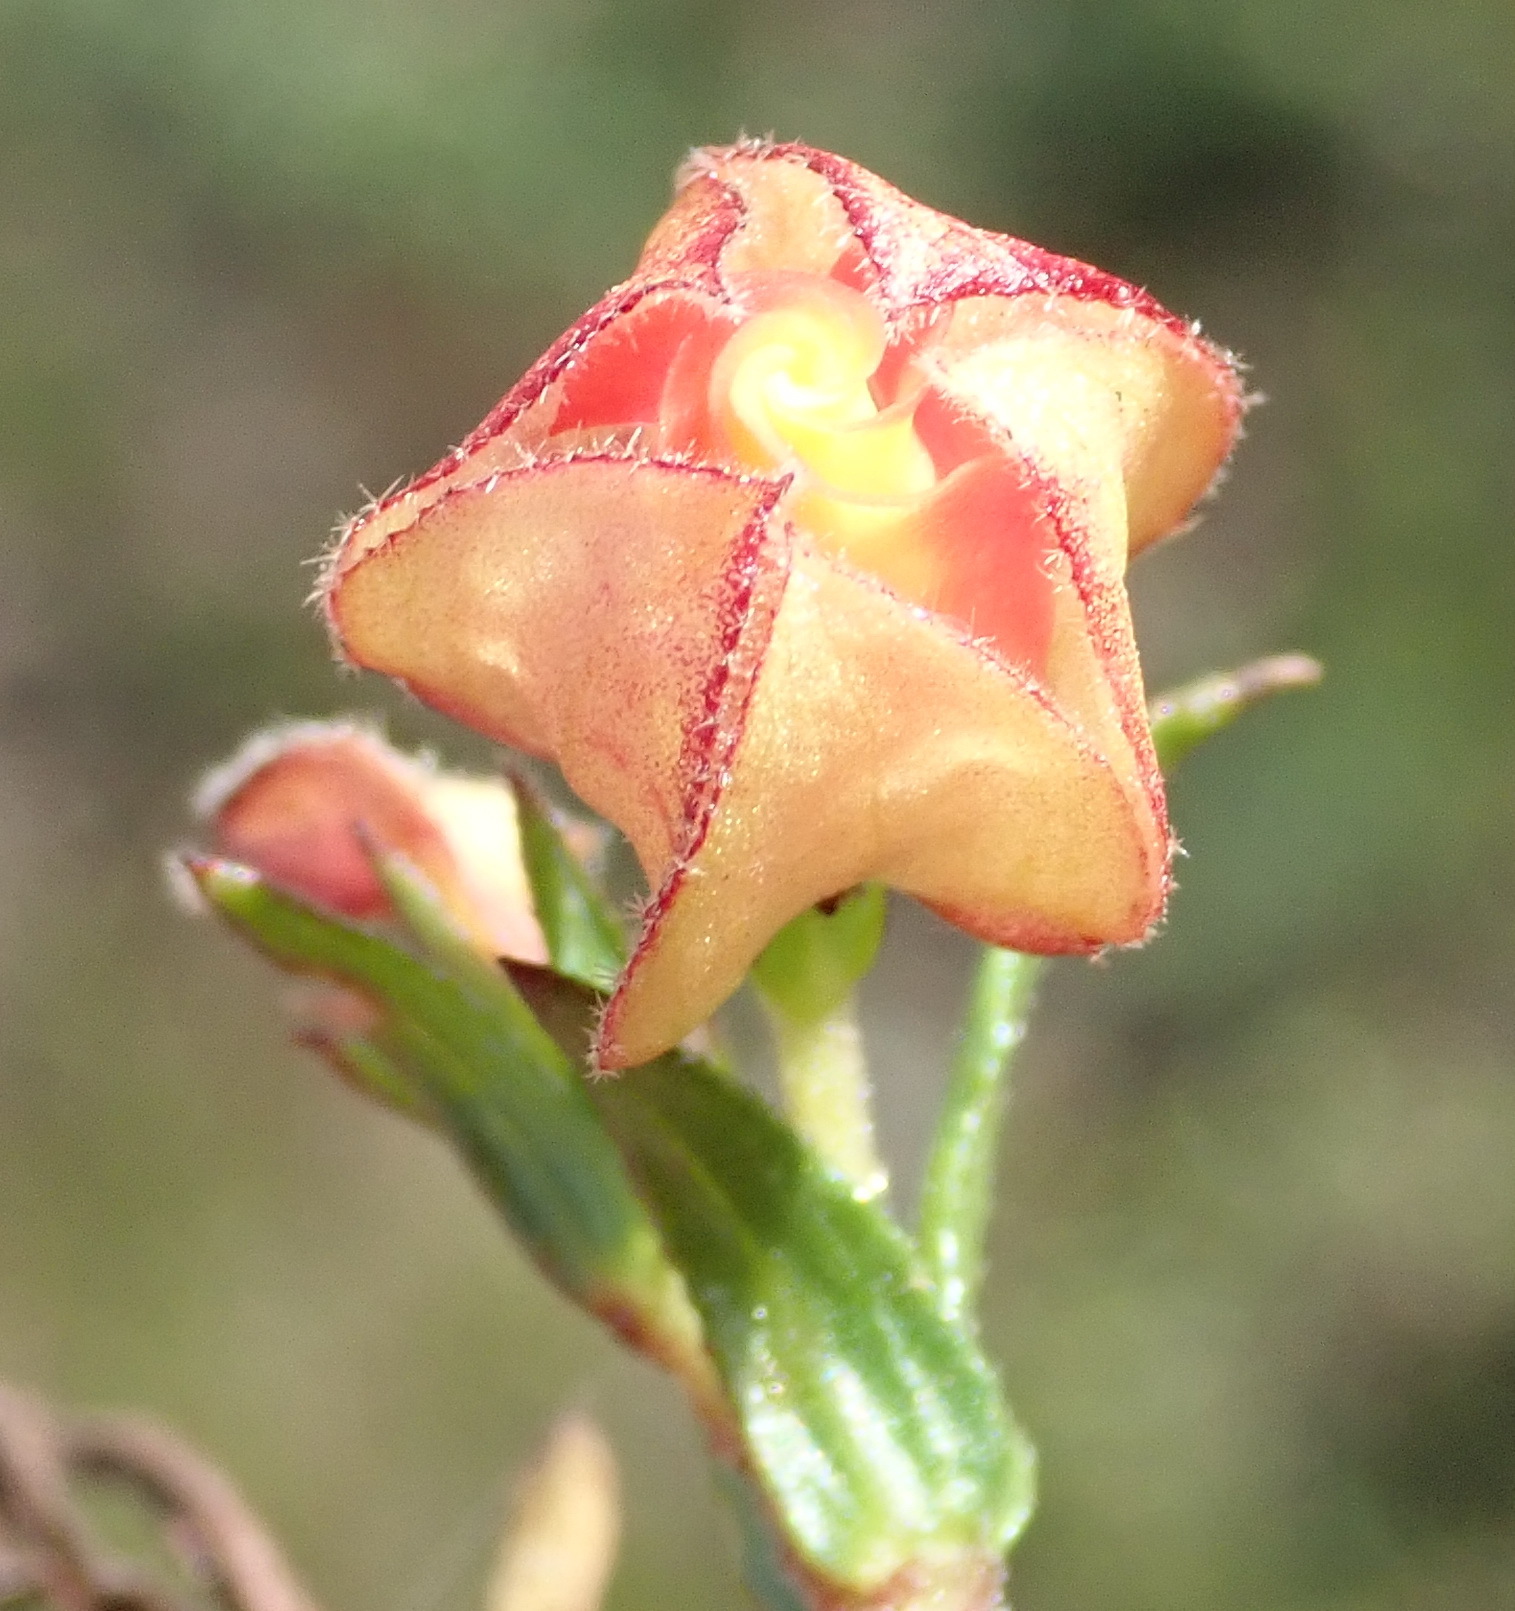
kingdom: Plantae
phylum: Tracheophyta
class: Magnoliopsida
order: Malvales
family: Malvaceae
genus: Hermannia
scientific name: Hermannia angularis
